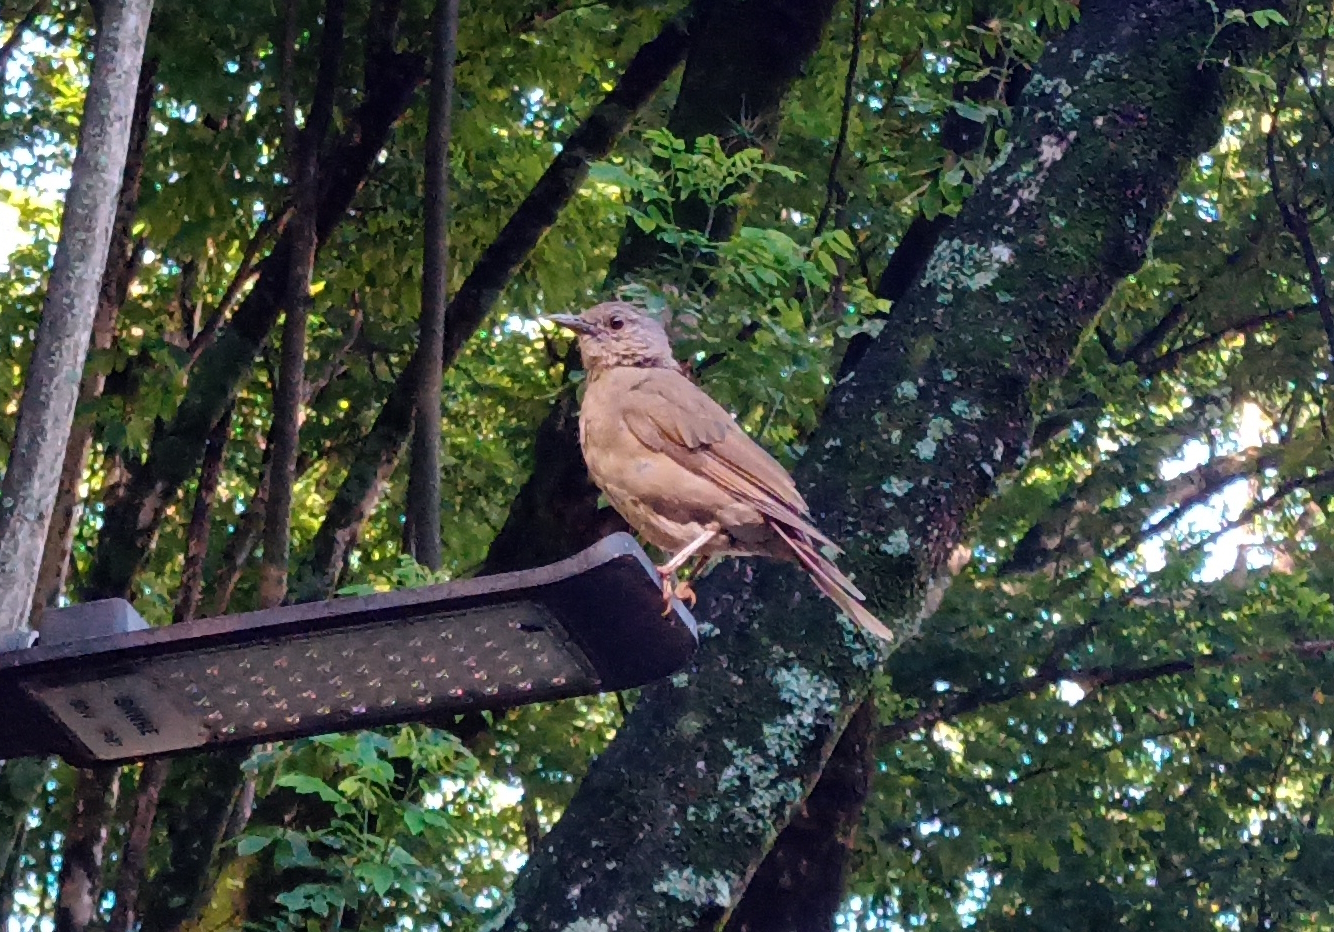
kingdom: Animalia
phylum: Chordata
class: Aves
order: Passeriformes
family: Turdidae
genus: Turdus
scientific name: Turdus leucomelas
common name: Pale-breasted thrush
